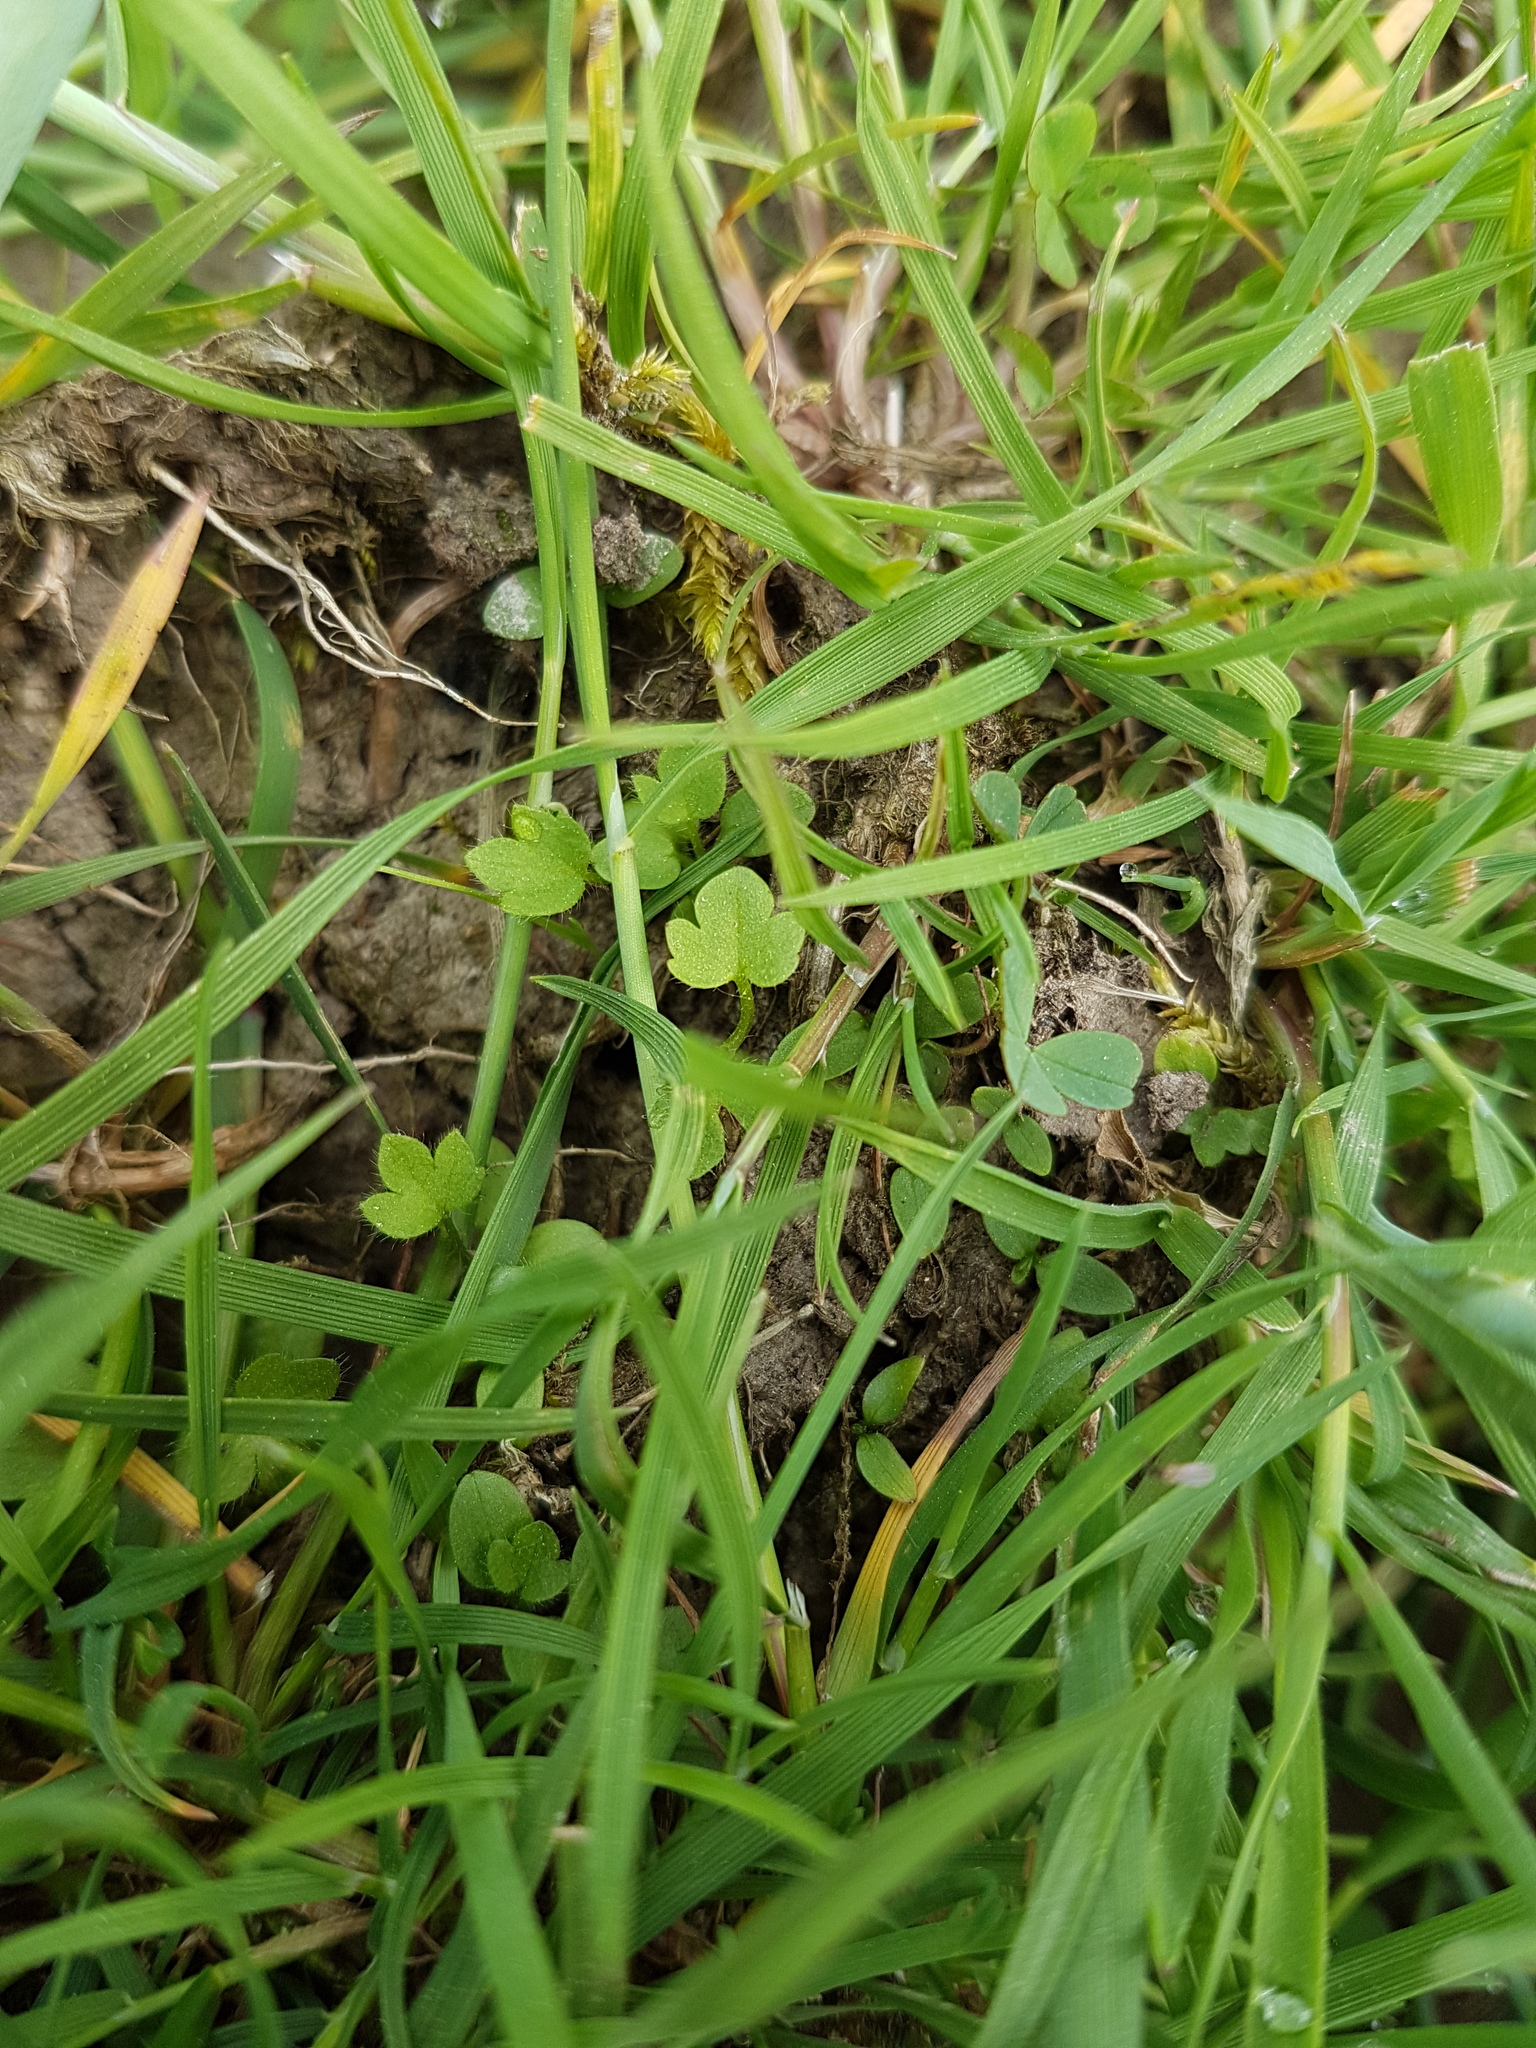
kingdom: Plantae
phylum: Tracheophyta
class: Magnoliopsida
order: Lamiales
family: Plantaginaceae
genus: Veronica
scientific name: Veronica hederifolia
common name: Ivy-leaved speedwell
